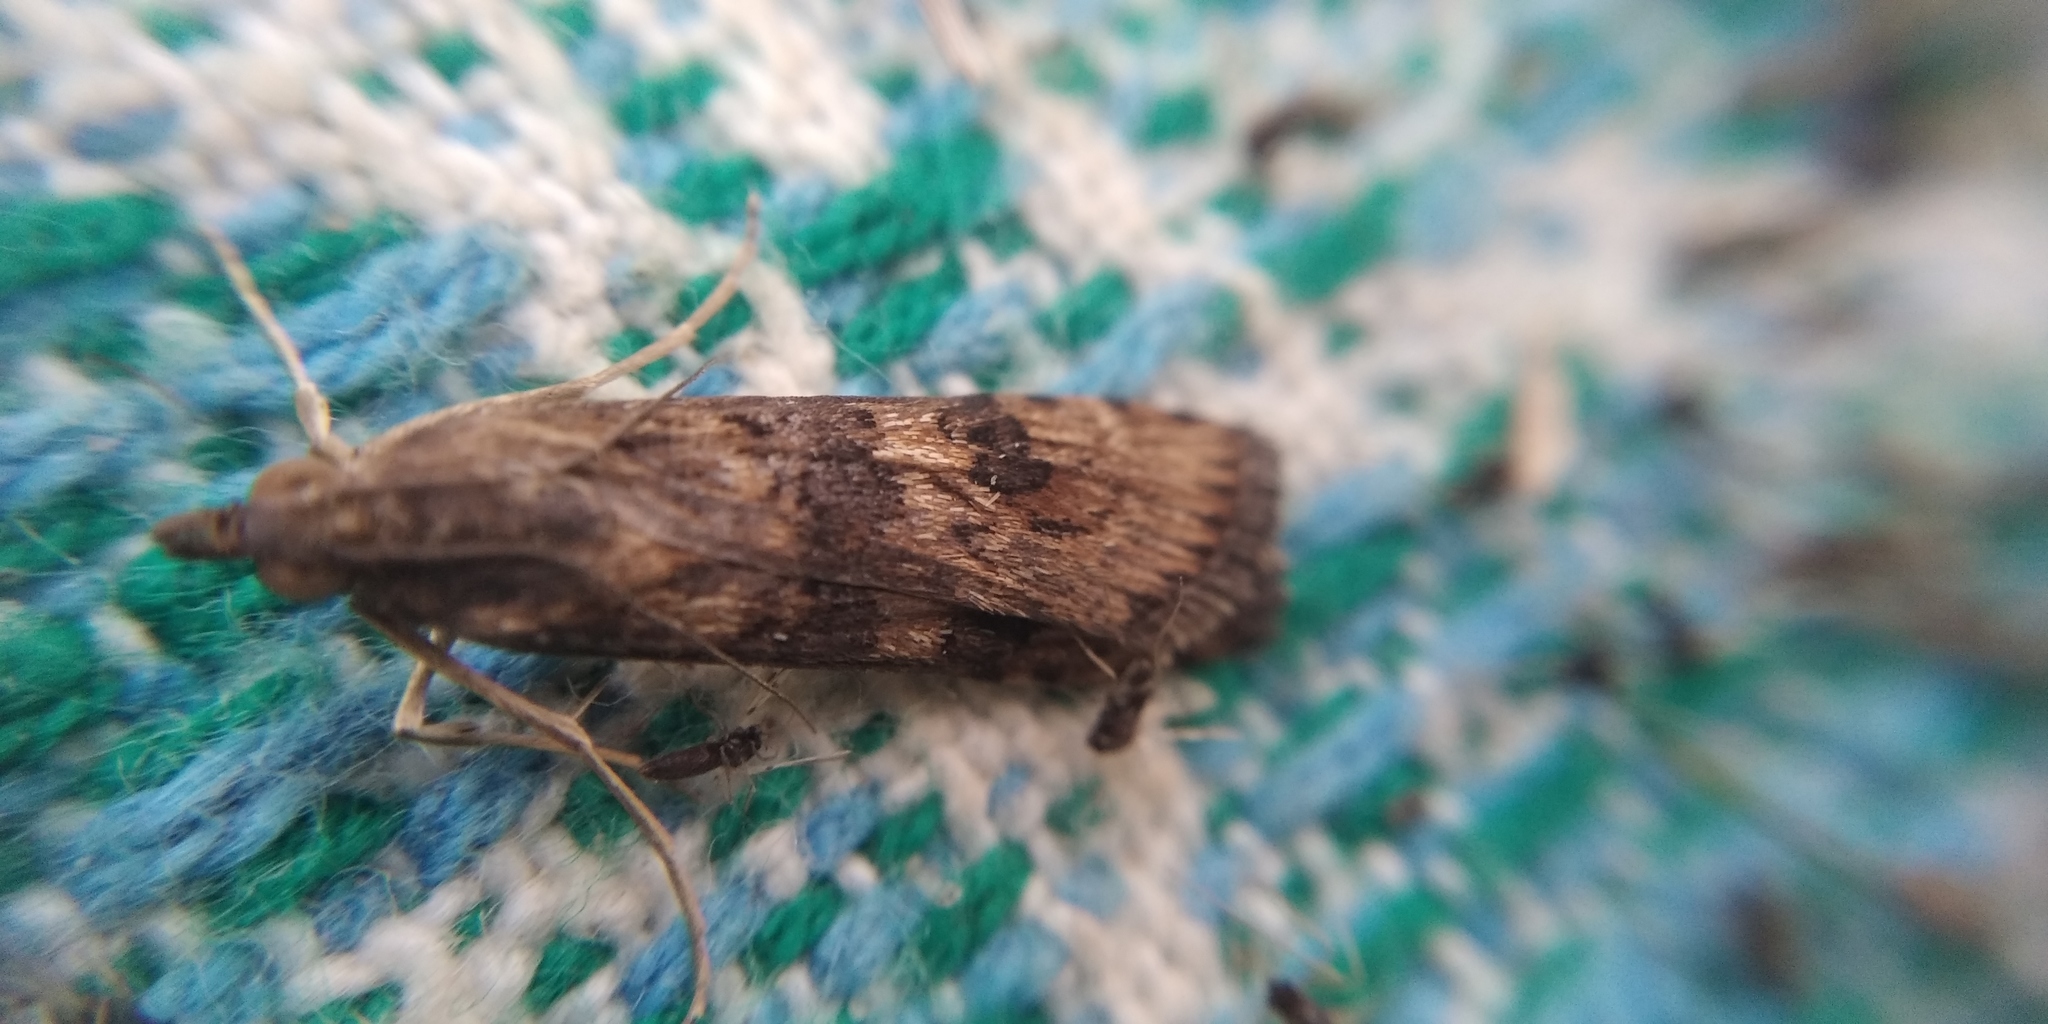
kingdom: Animalia
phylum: Arthropoda
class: Insecta
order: Lepidoptera
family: Crambidae
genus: Nomophila
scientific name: Nomophila noctuella
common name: Rush veneer
